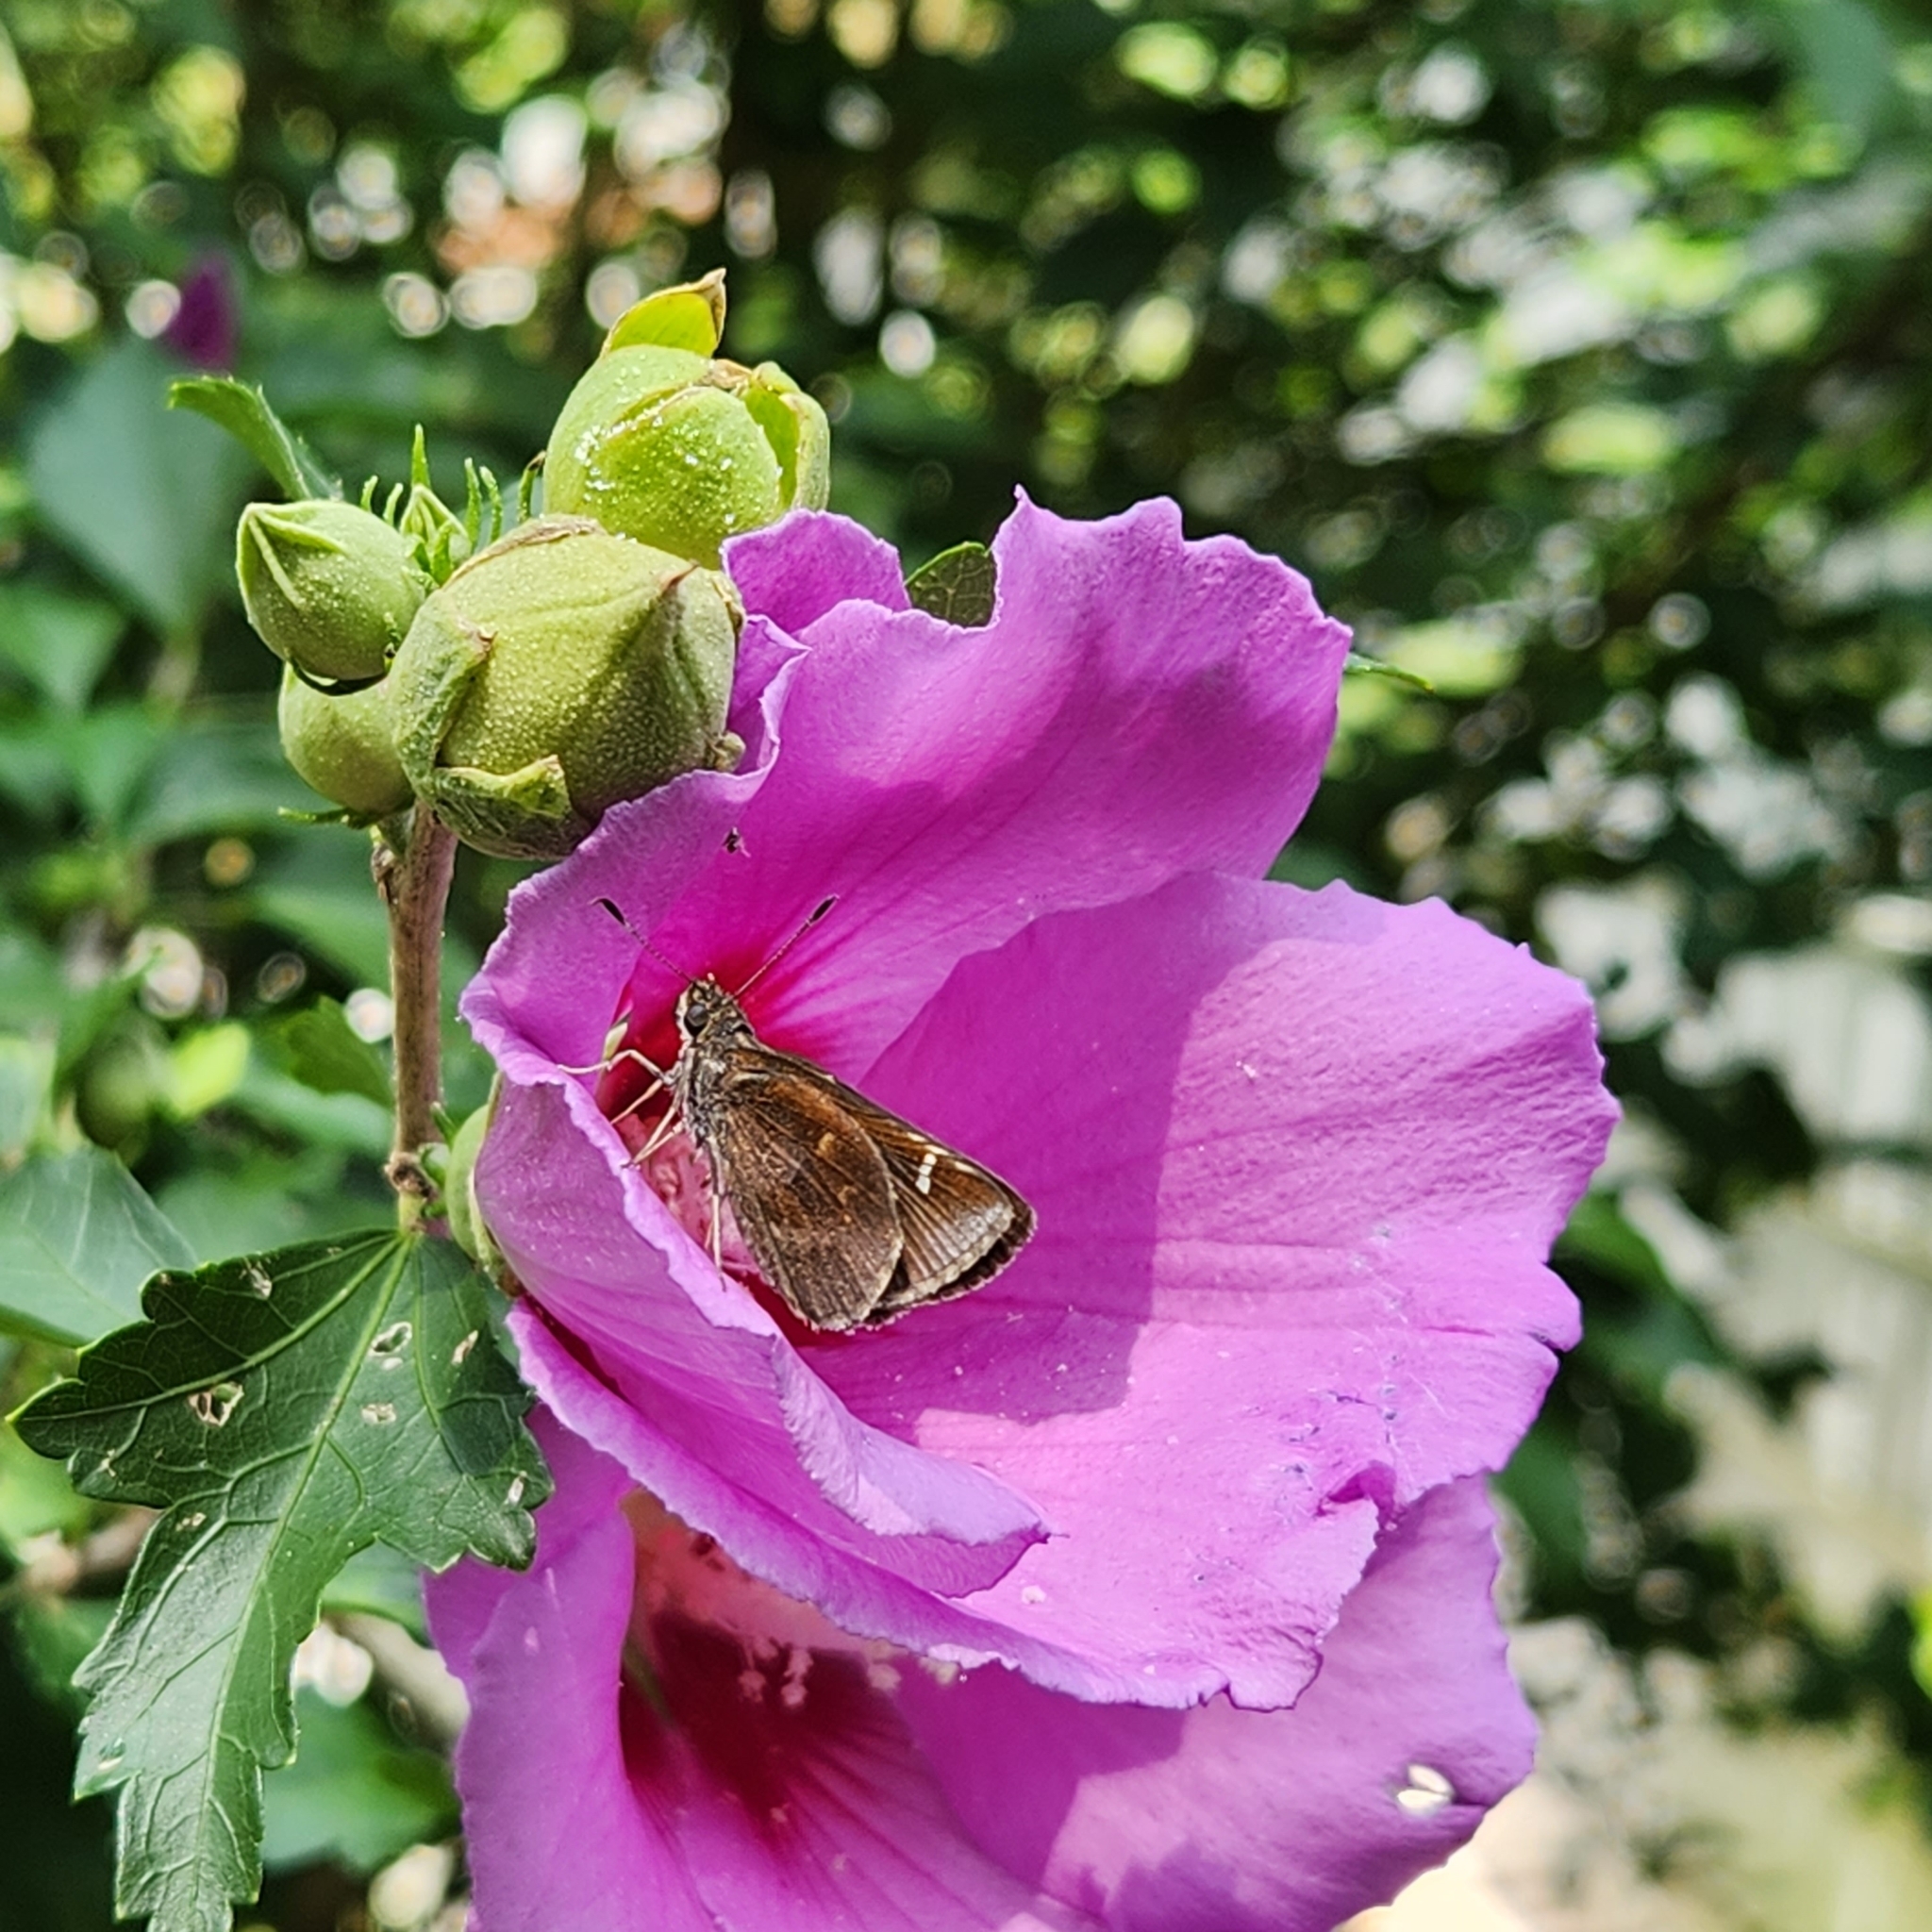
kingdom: Animalia
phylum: Arthropoda
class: Insecta
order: Lepidoptera
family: Hesperiidae
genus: Lerema
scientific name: Lerema accius
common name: Clouded skipper
